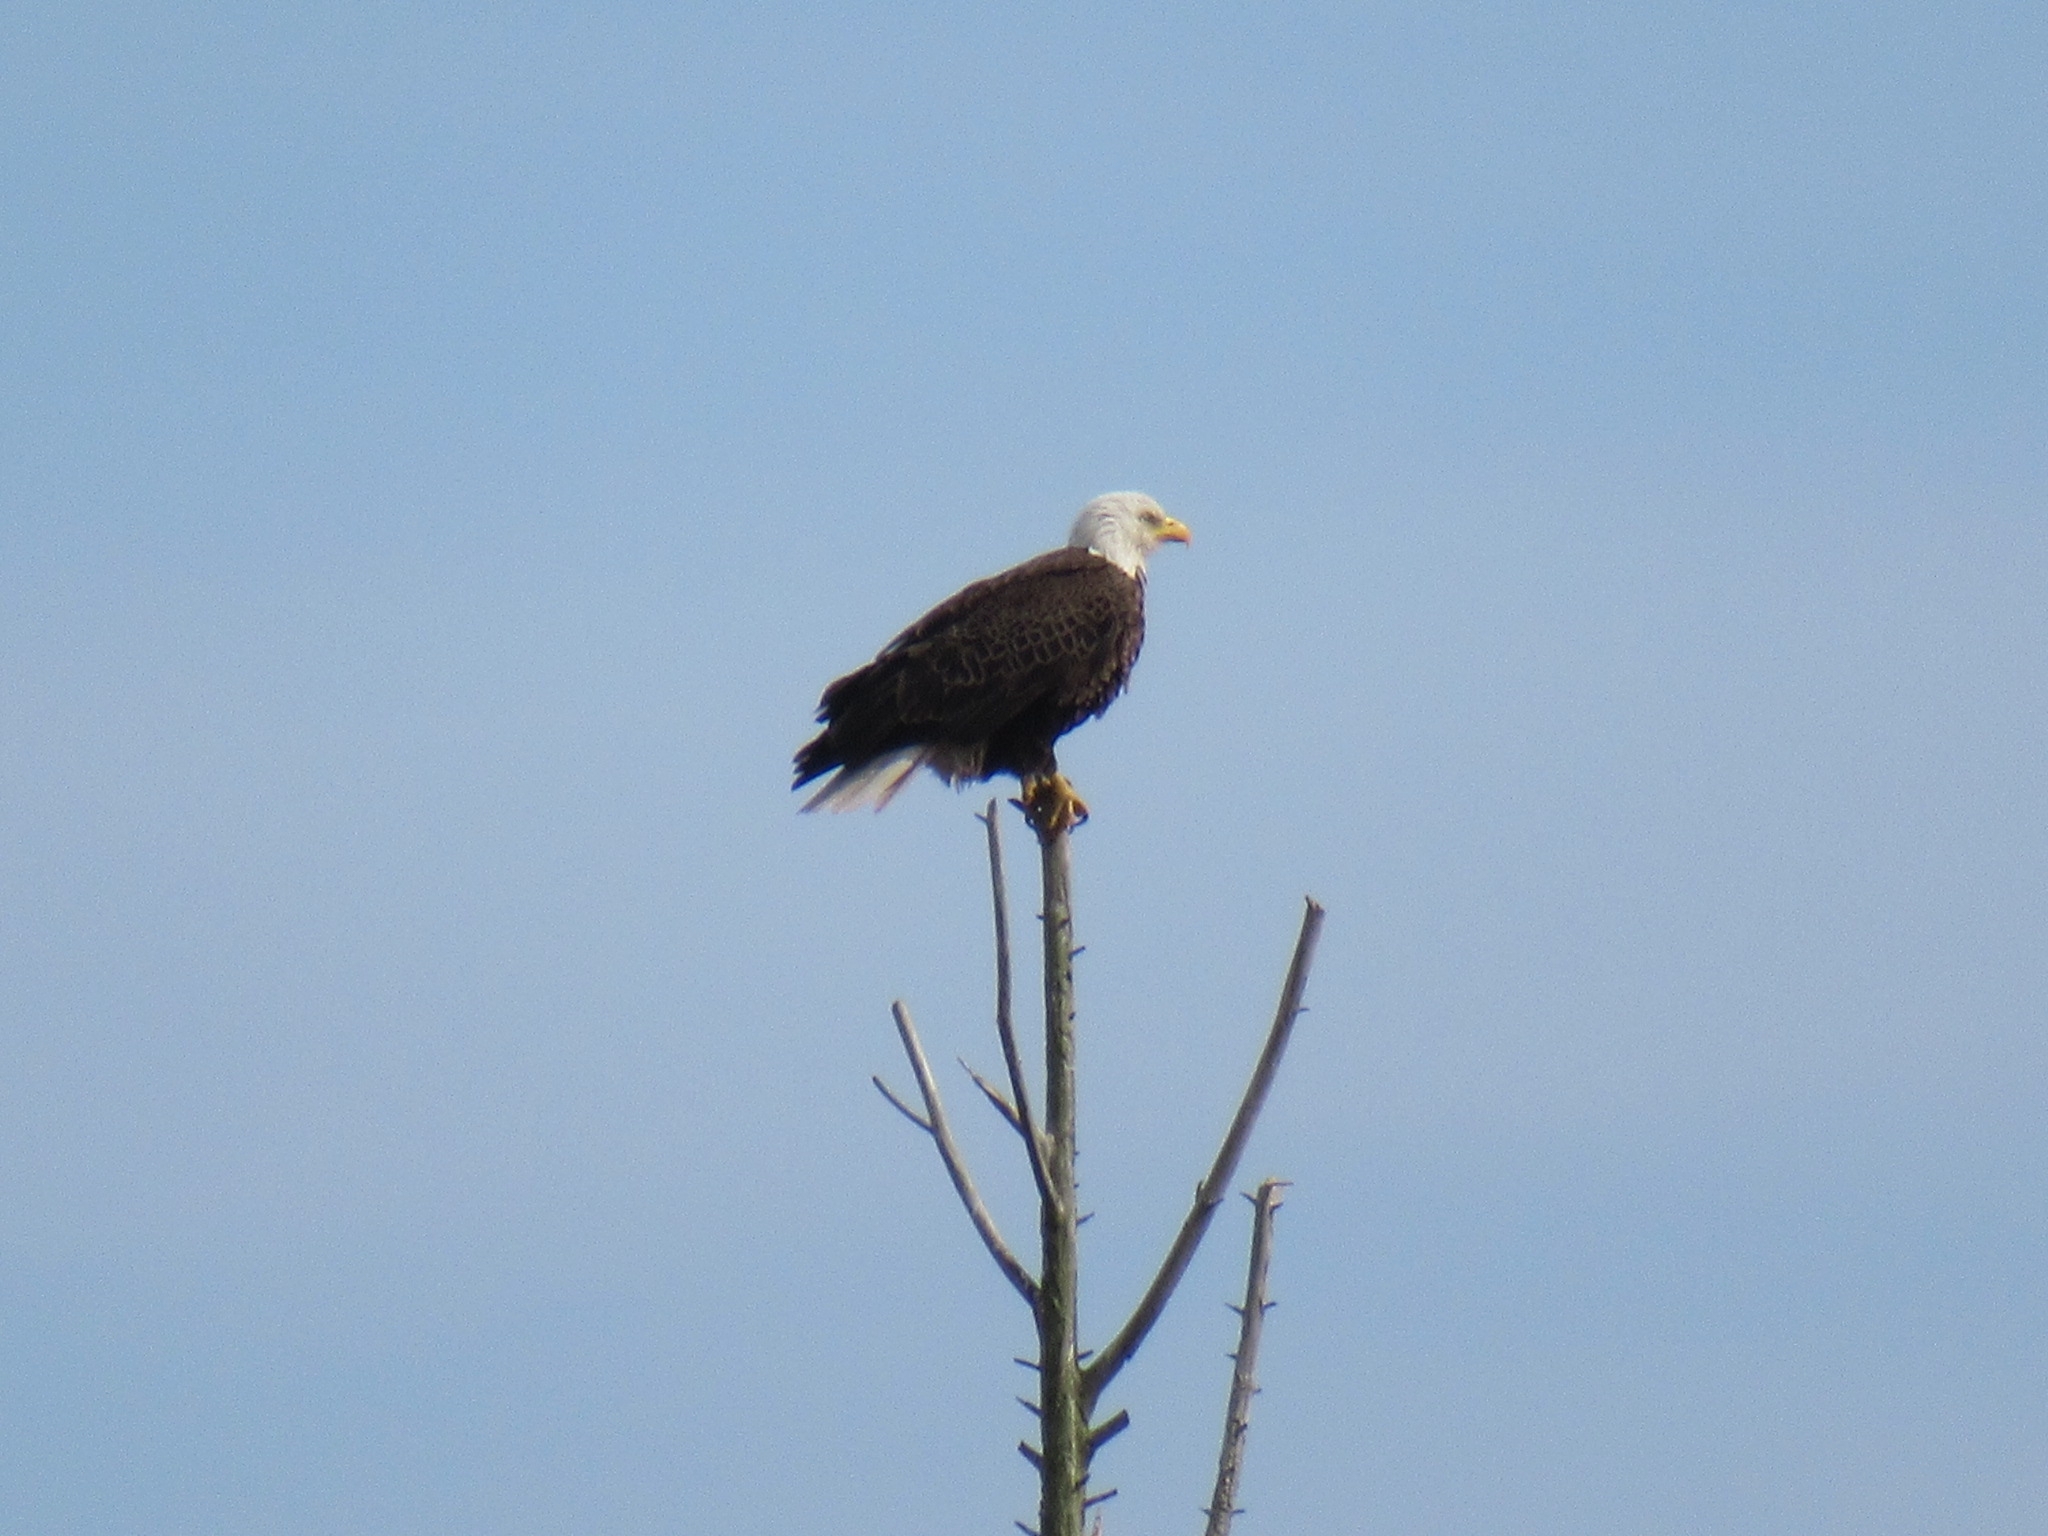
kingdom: Animalia
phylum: Chordata
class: Aves
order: Accipitriformes
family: Accipitridae
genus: Haliaeetus
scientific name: Haliaeetus leucocephalus
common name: Bald eagle
